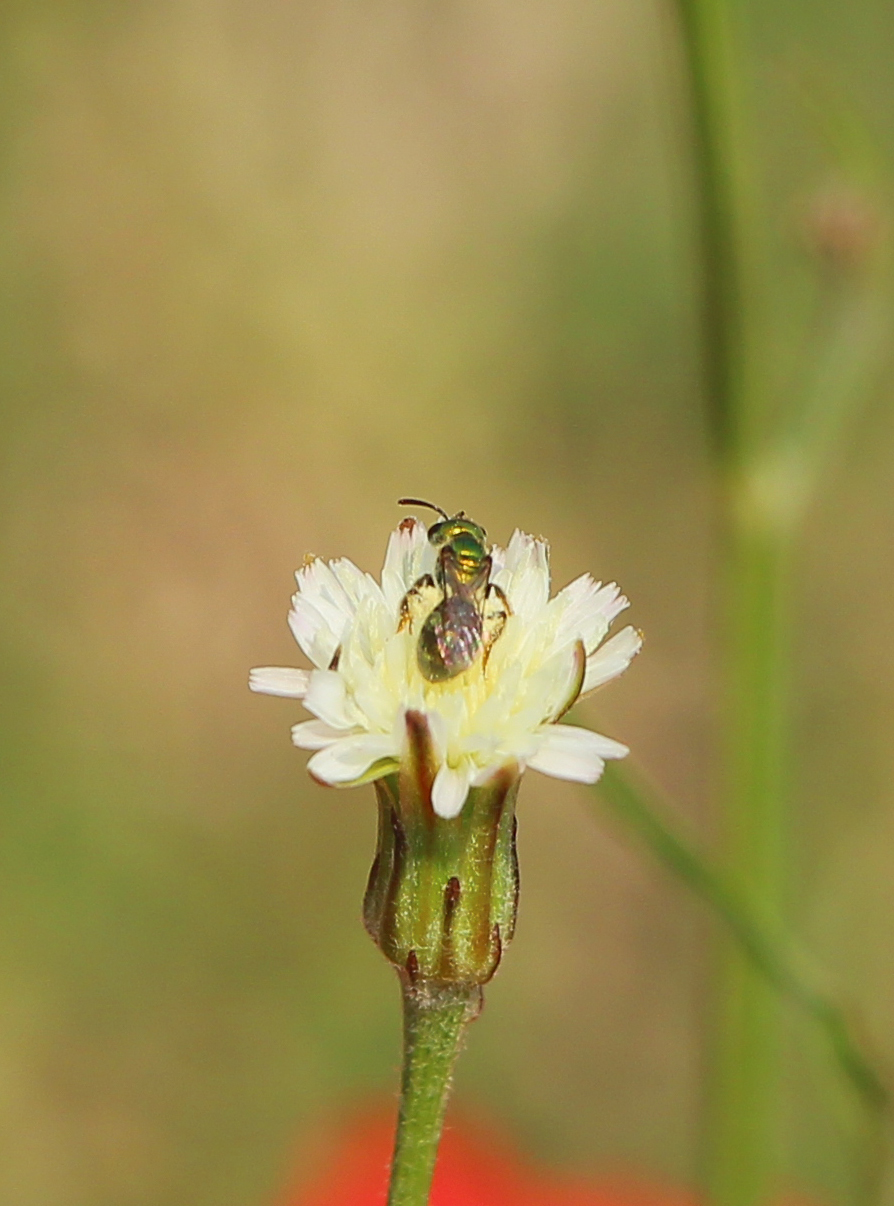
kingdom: Animalia
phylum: Arthropoda
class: Insecta
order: Hymenoptera
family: Halictidae
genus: Augochlorella
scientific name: Augochlorella iphigenia
